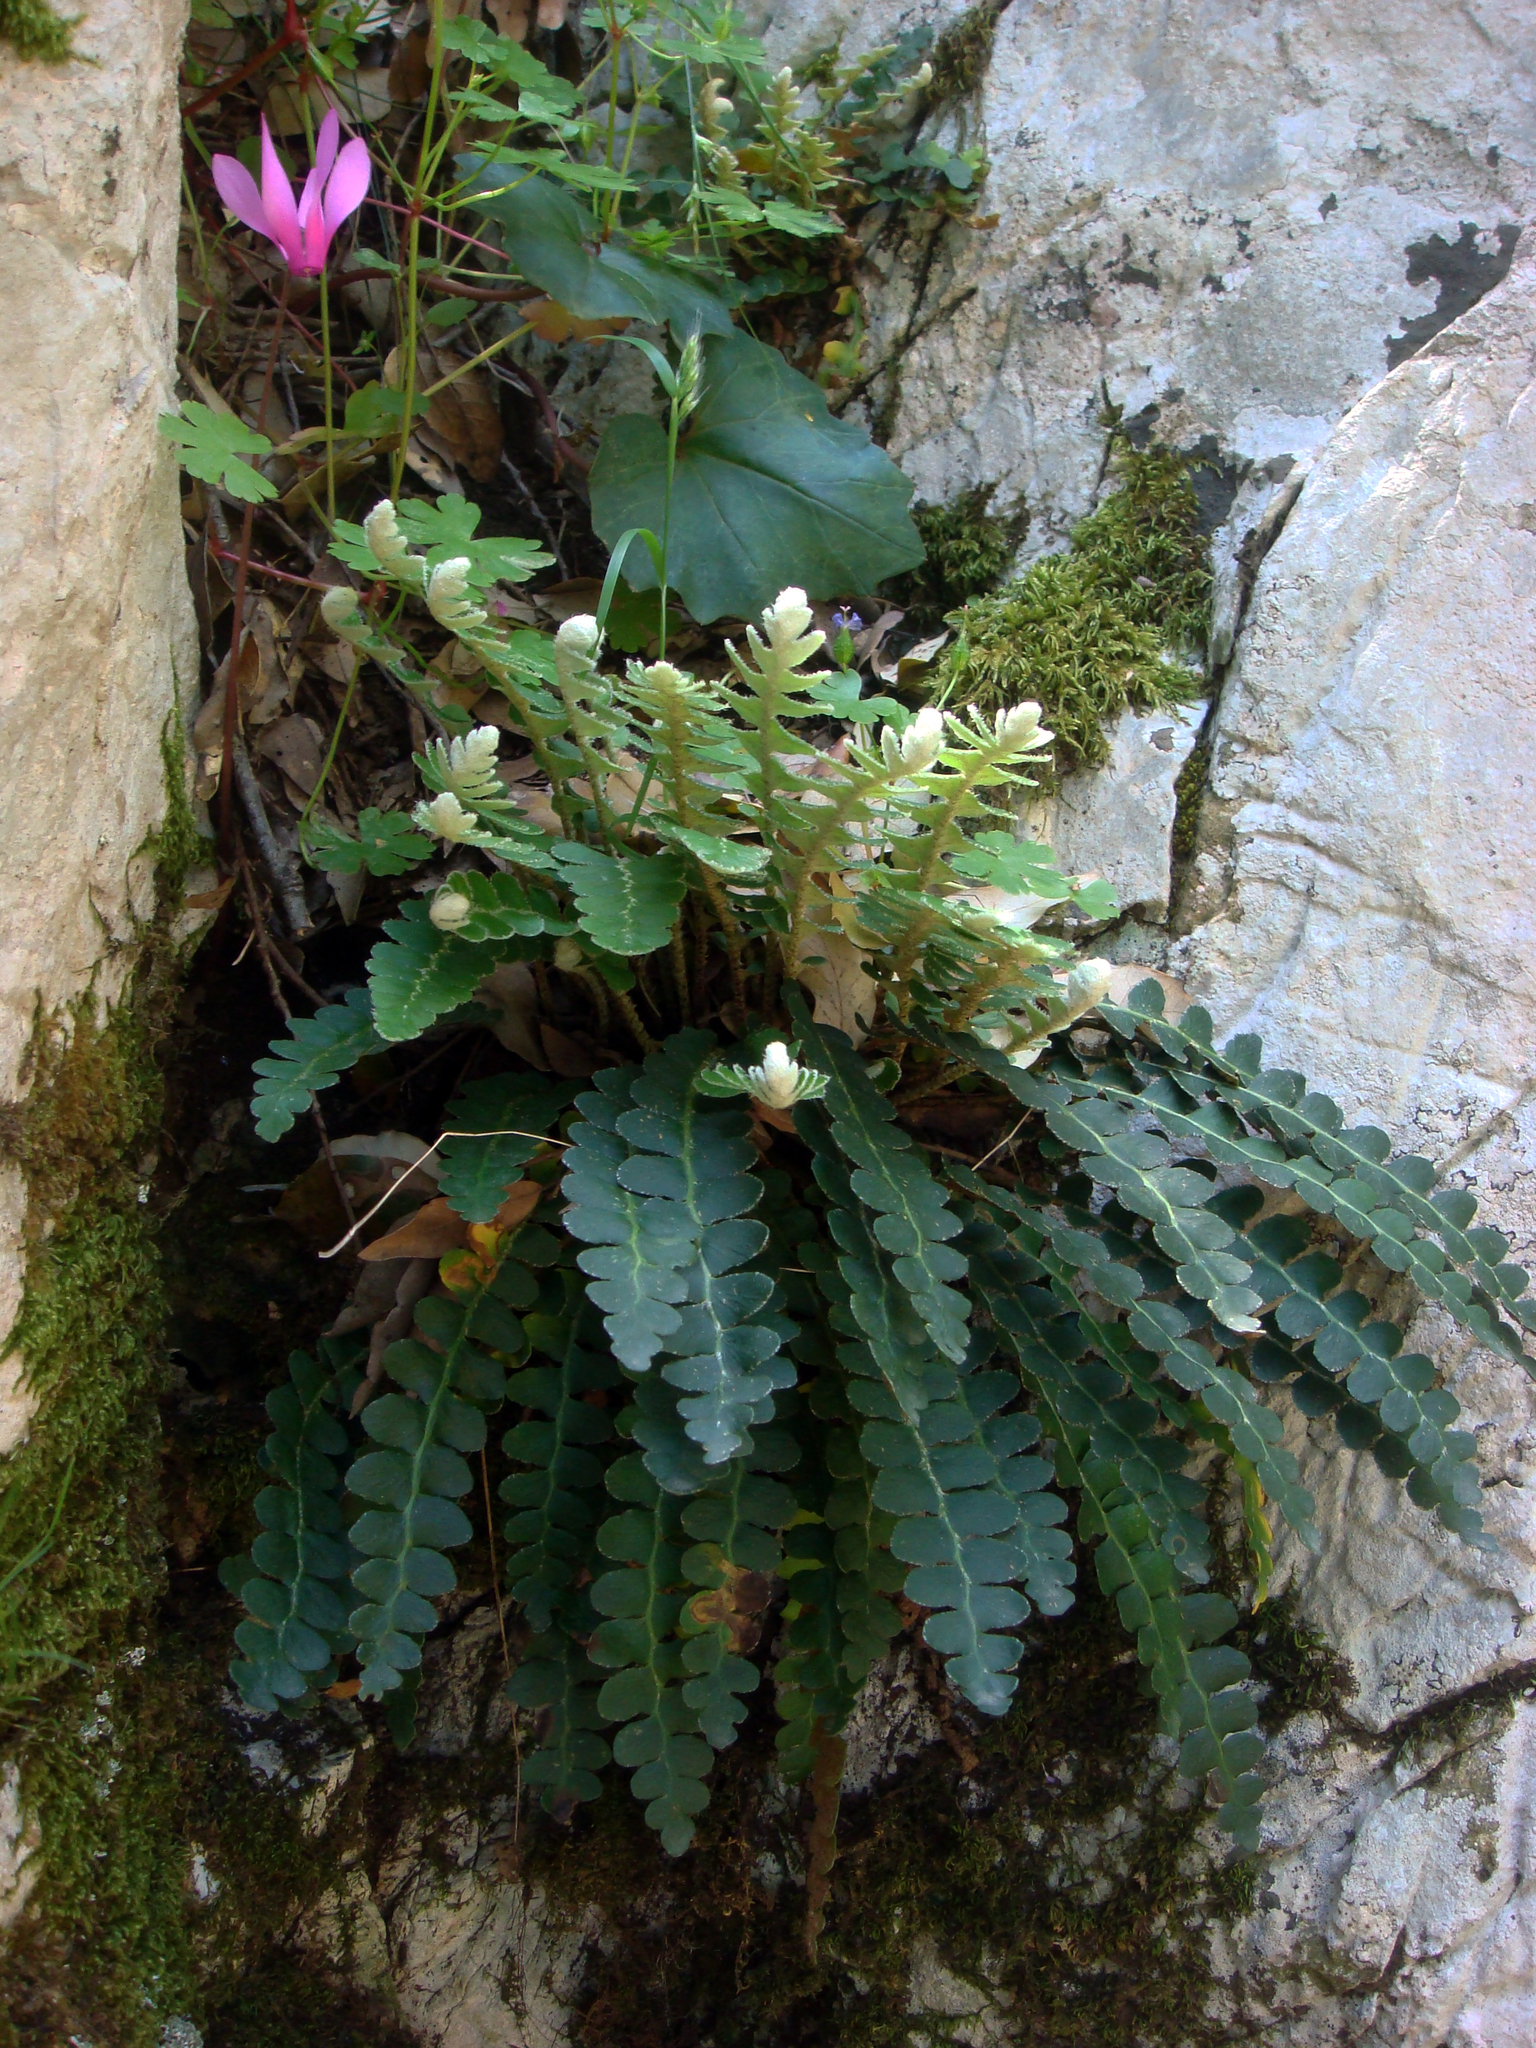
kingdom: Plantae
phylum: Tracheophyta
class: Polypodiopsida
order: Polypodiales
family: Aspleniaceae
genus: Asplenium
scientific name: Asplenium ceterach
